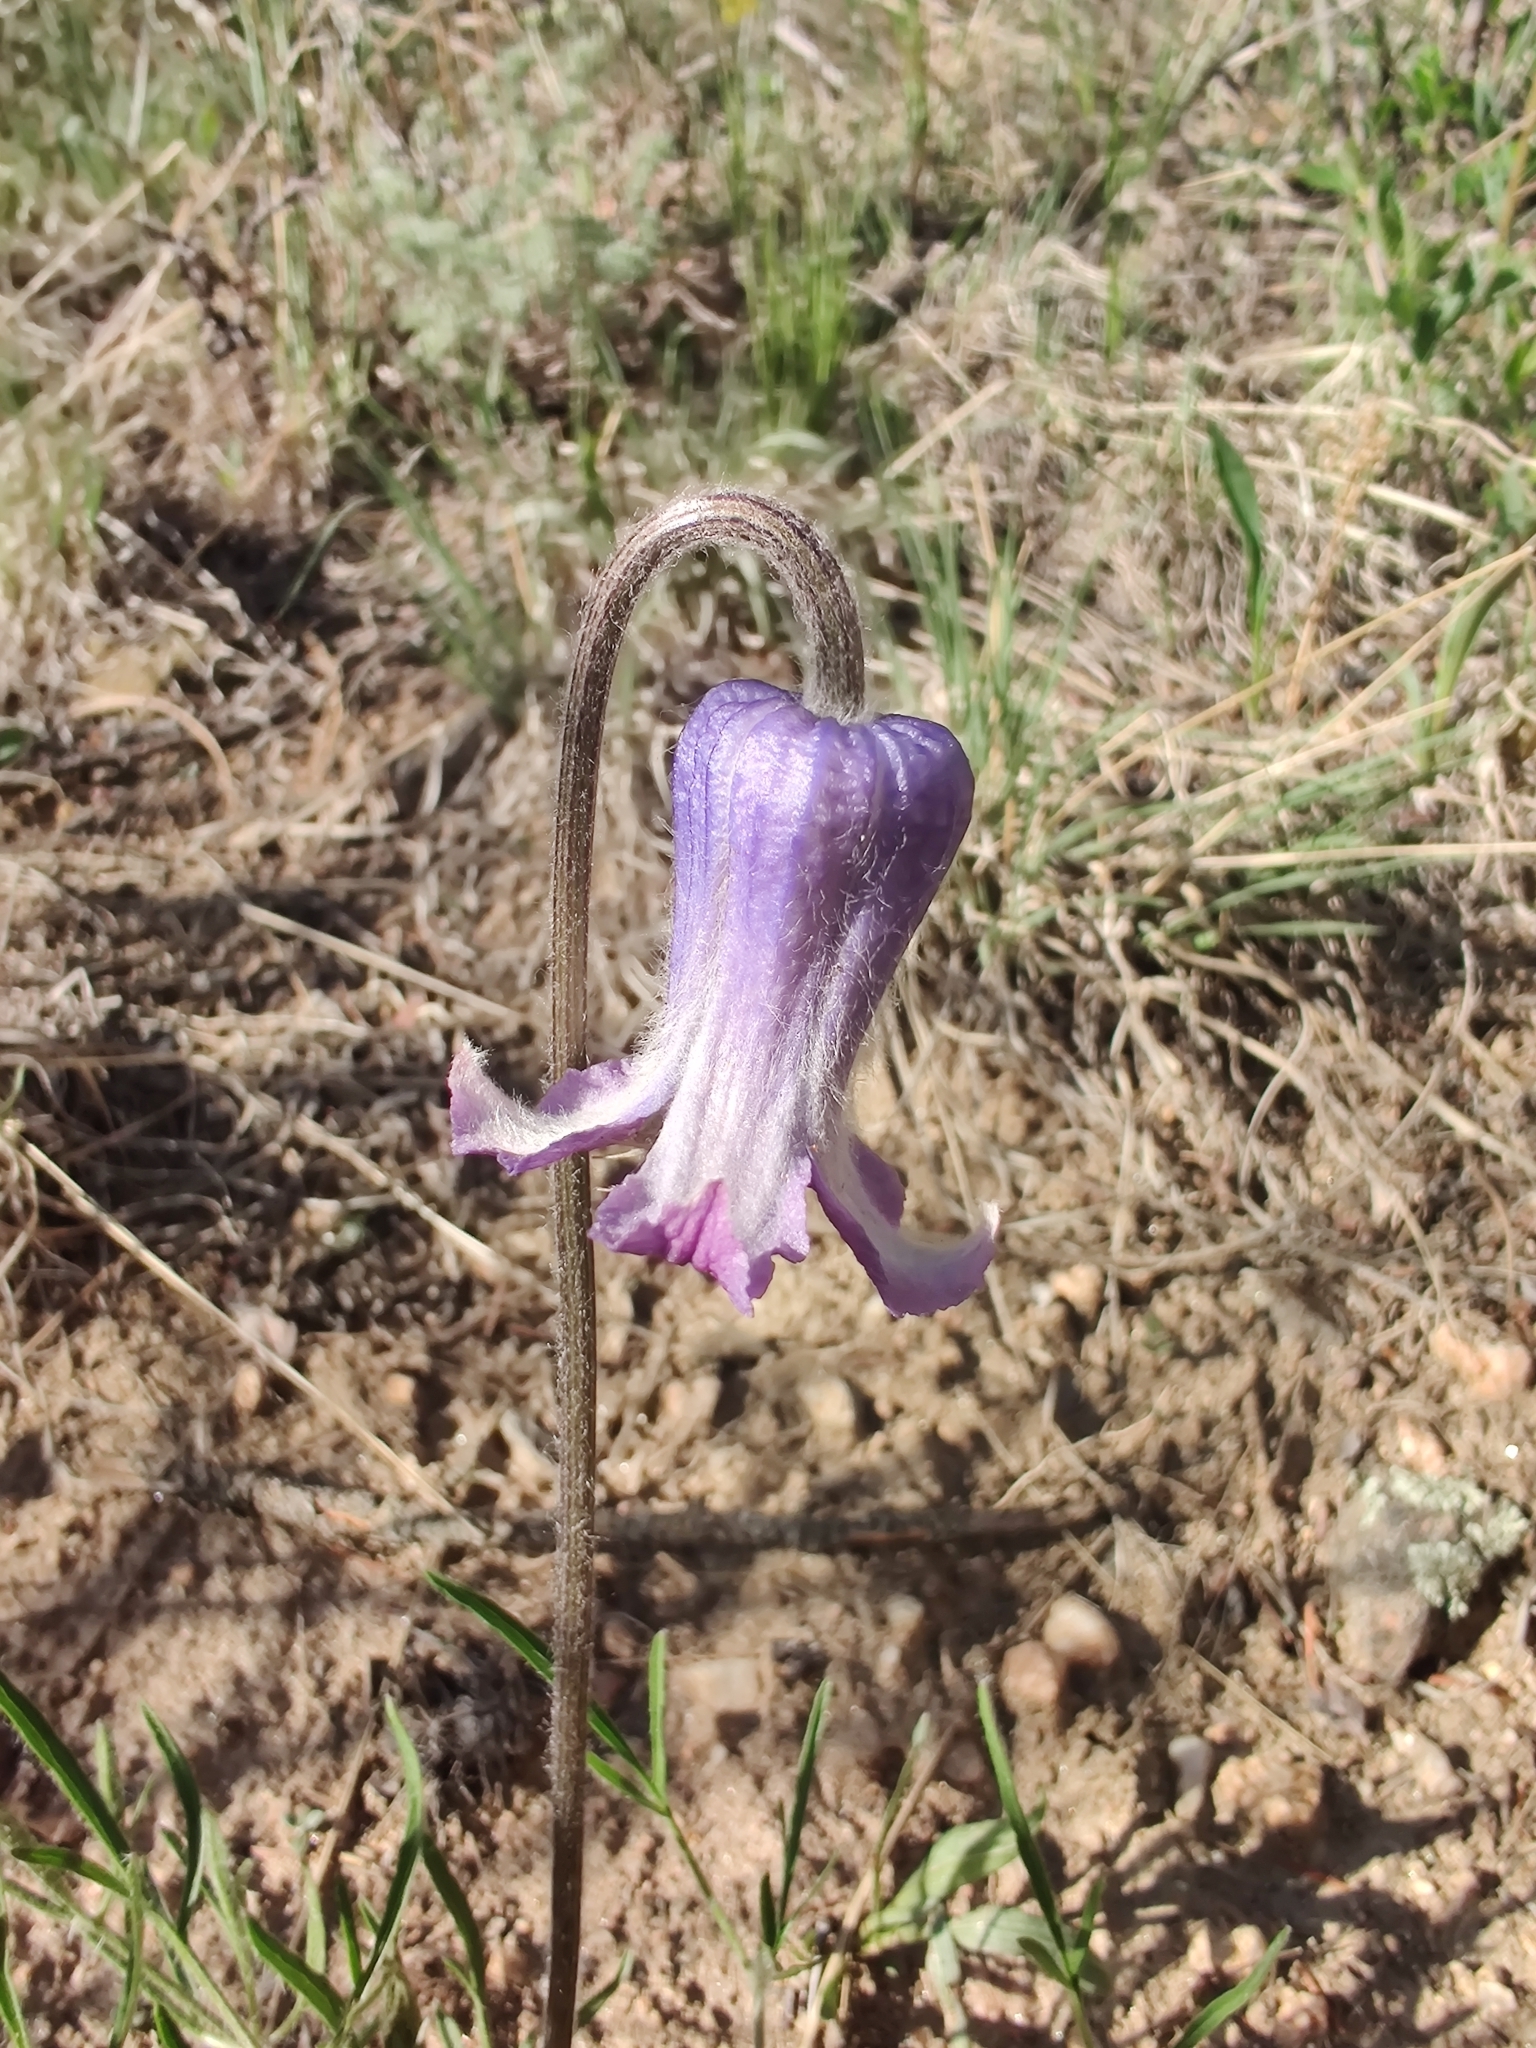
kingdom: Plantae
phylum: Tracheophyta
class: Magnoliopsida
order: Ranunculales
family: Ranunculaceae
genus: Clematis
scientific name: Clematis hirsutissima
